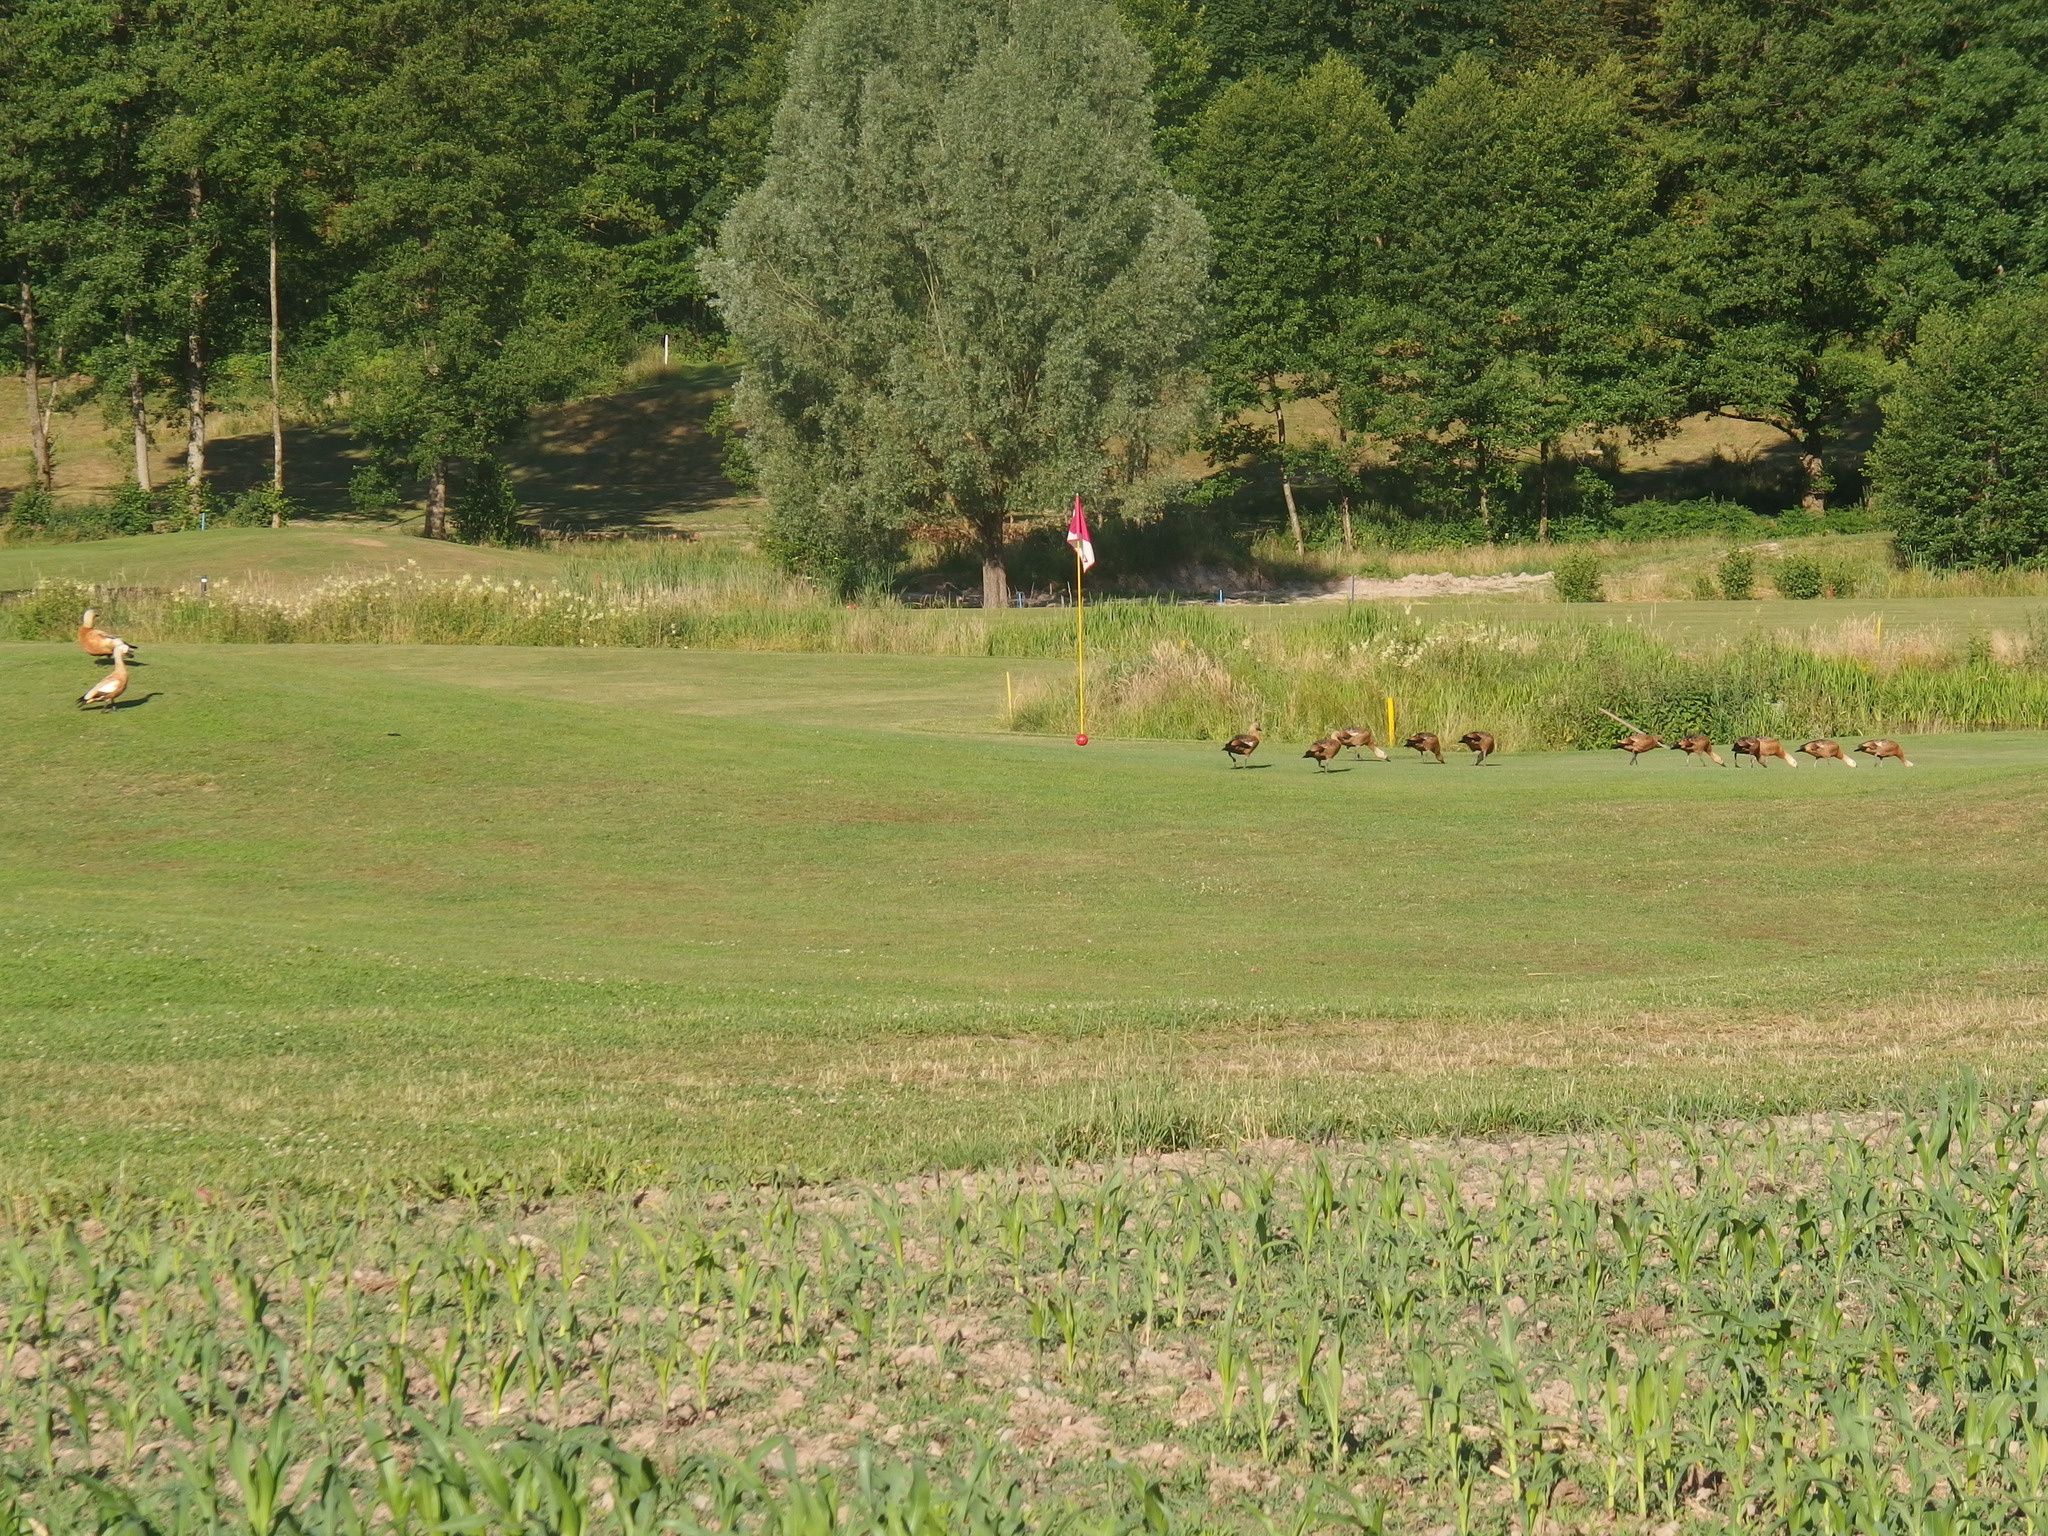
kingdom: Animalia
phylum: Chordata
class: Aves
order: Anseriformes
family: Anatidae
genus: Tadorna
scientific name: Tadorna ferruginea
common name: Ruddy shelduck
